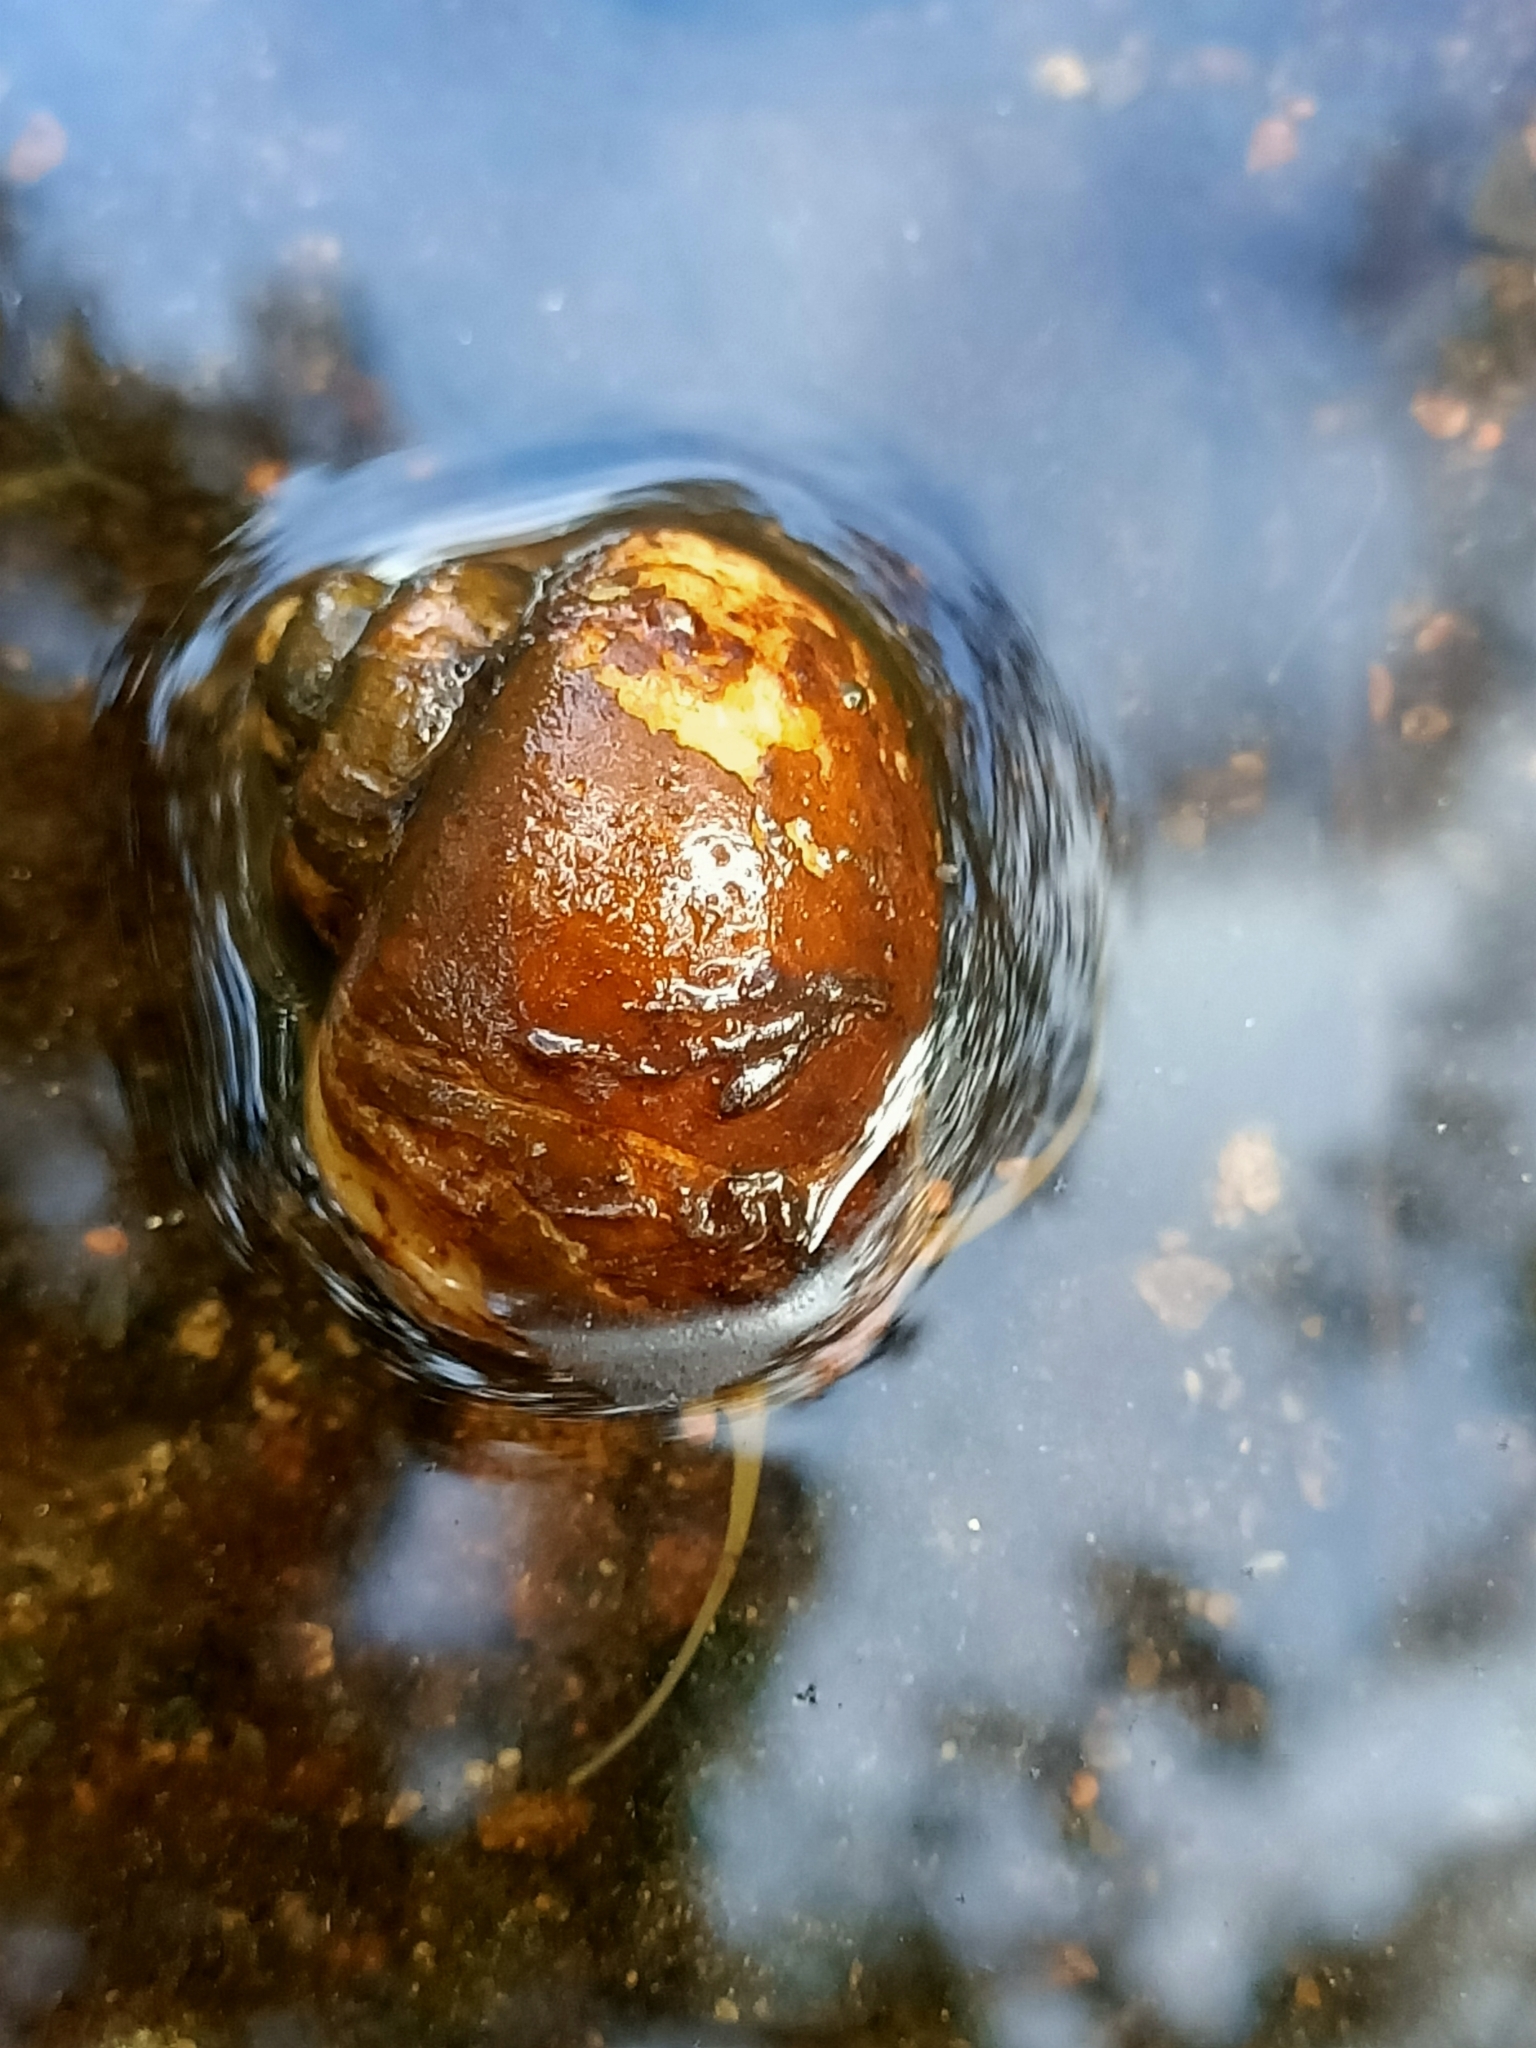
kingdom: Animalia
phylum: Mollusca
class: Gastropoda
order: Architaenioglossa
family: Ampullariidae
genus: Pomacea
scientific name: Pomacea diffusa
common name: Spike-topped applesnail
